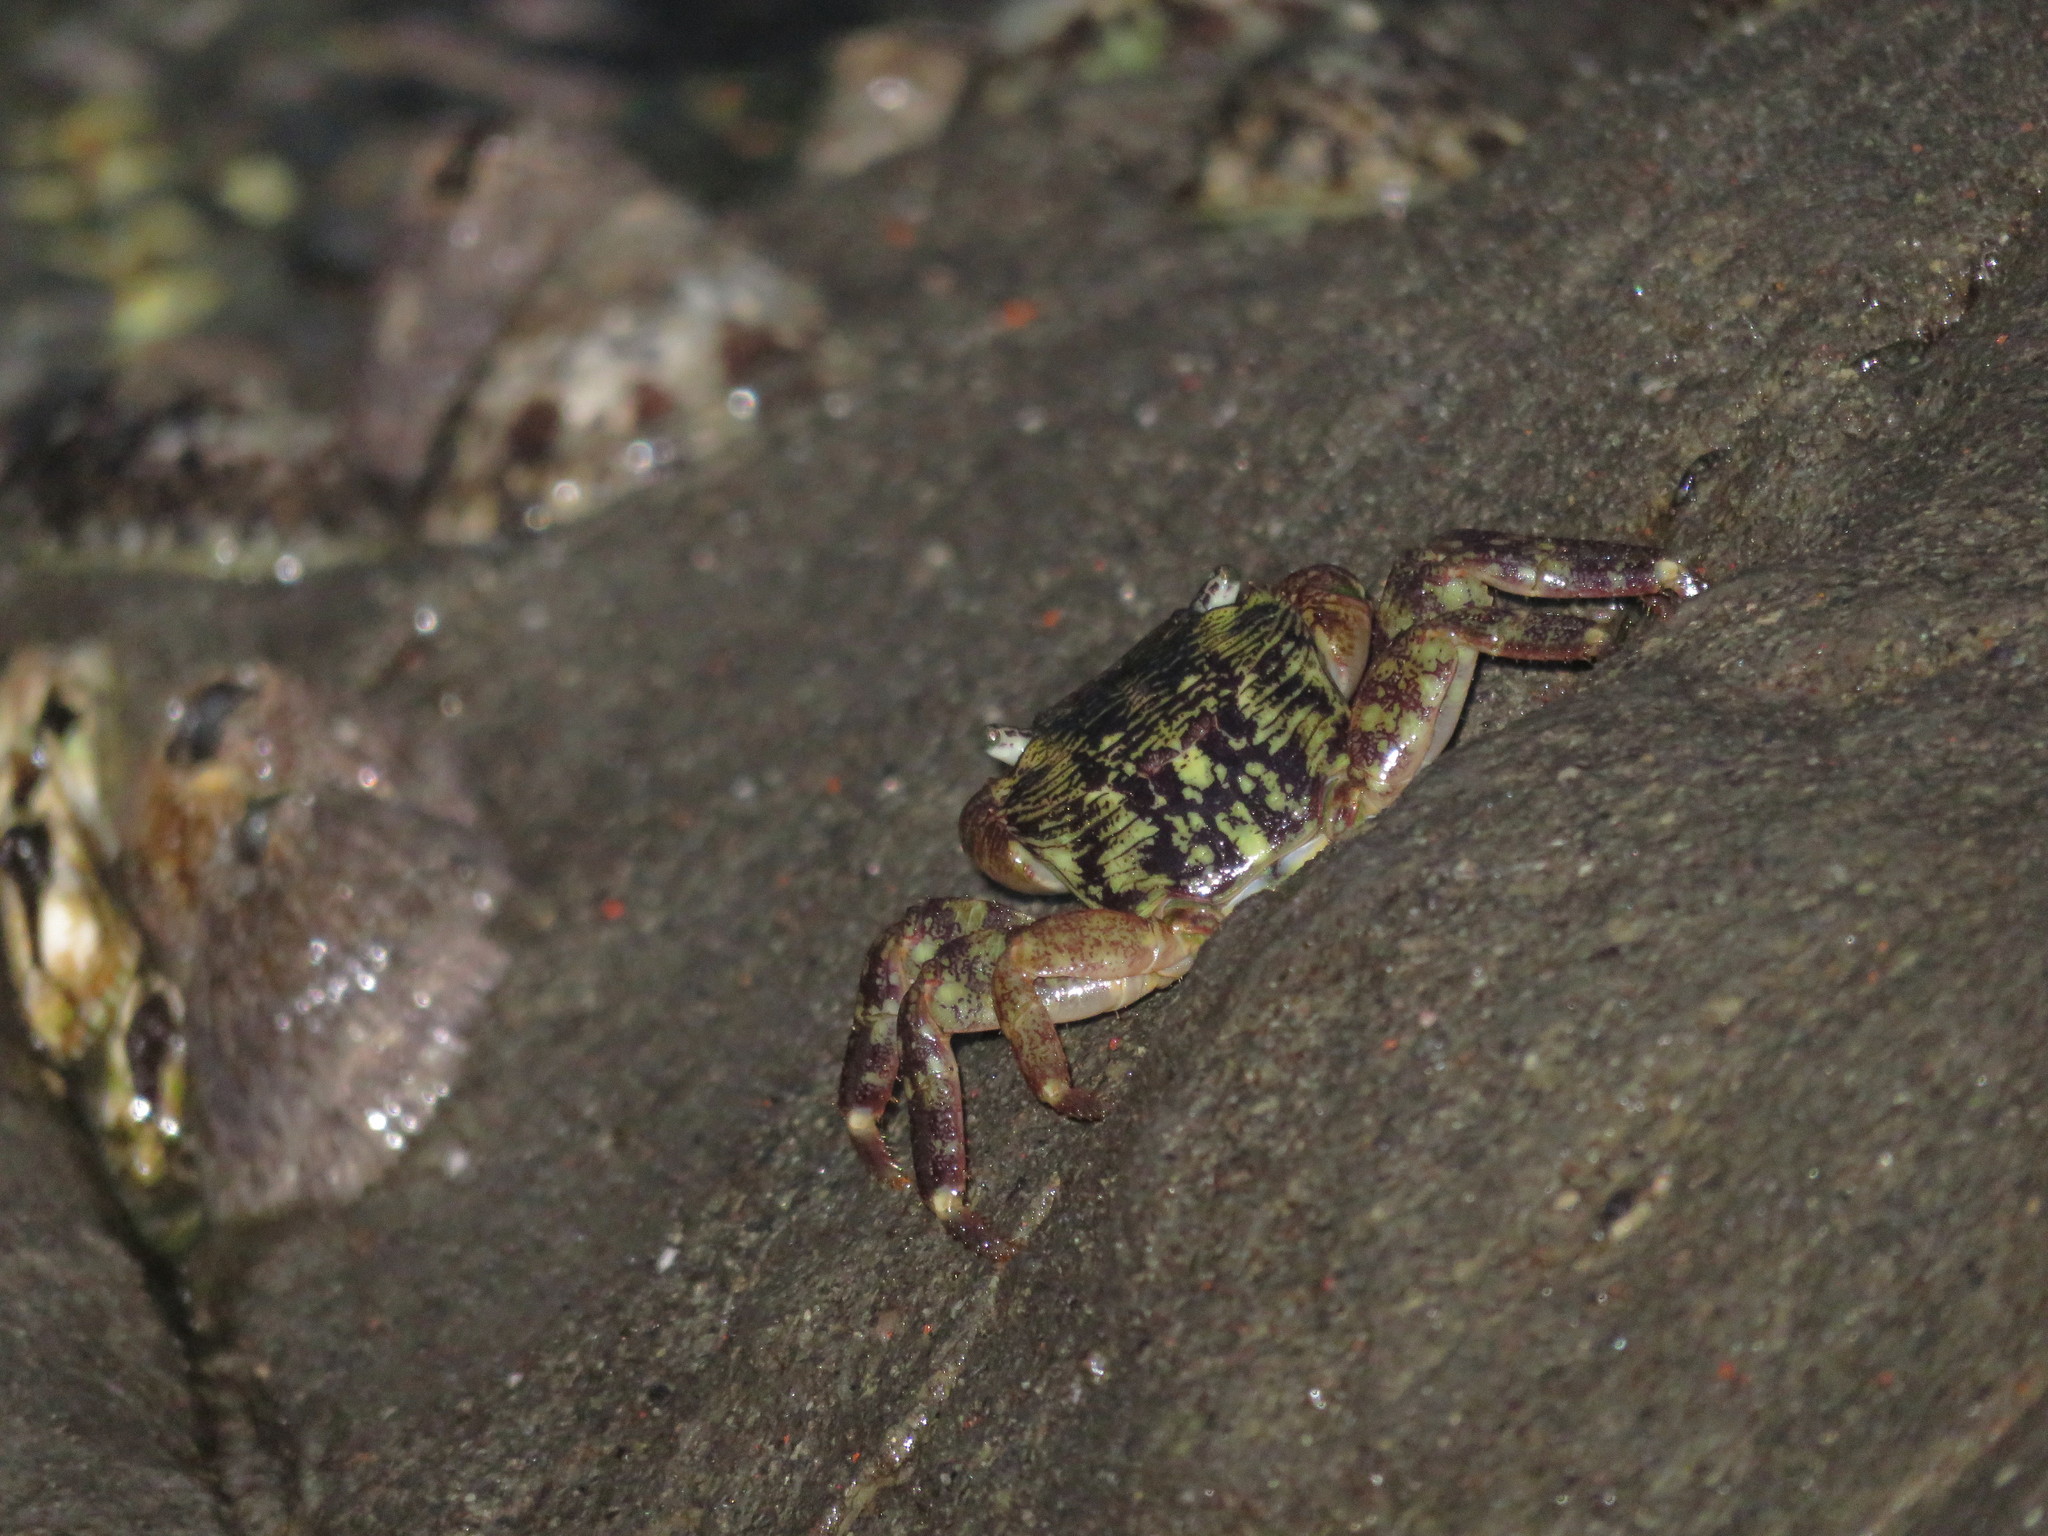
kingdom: Animalia
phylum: Arthropoda
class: Malacostraca
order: Decapoda
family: Grapsidae
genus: Pachygrapsus
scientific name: Pachygrapsus crassipes
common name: Striped shore crab
